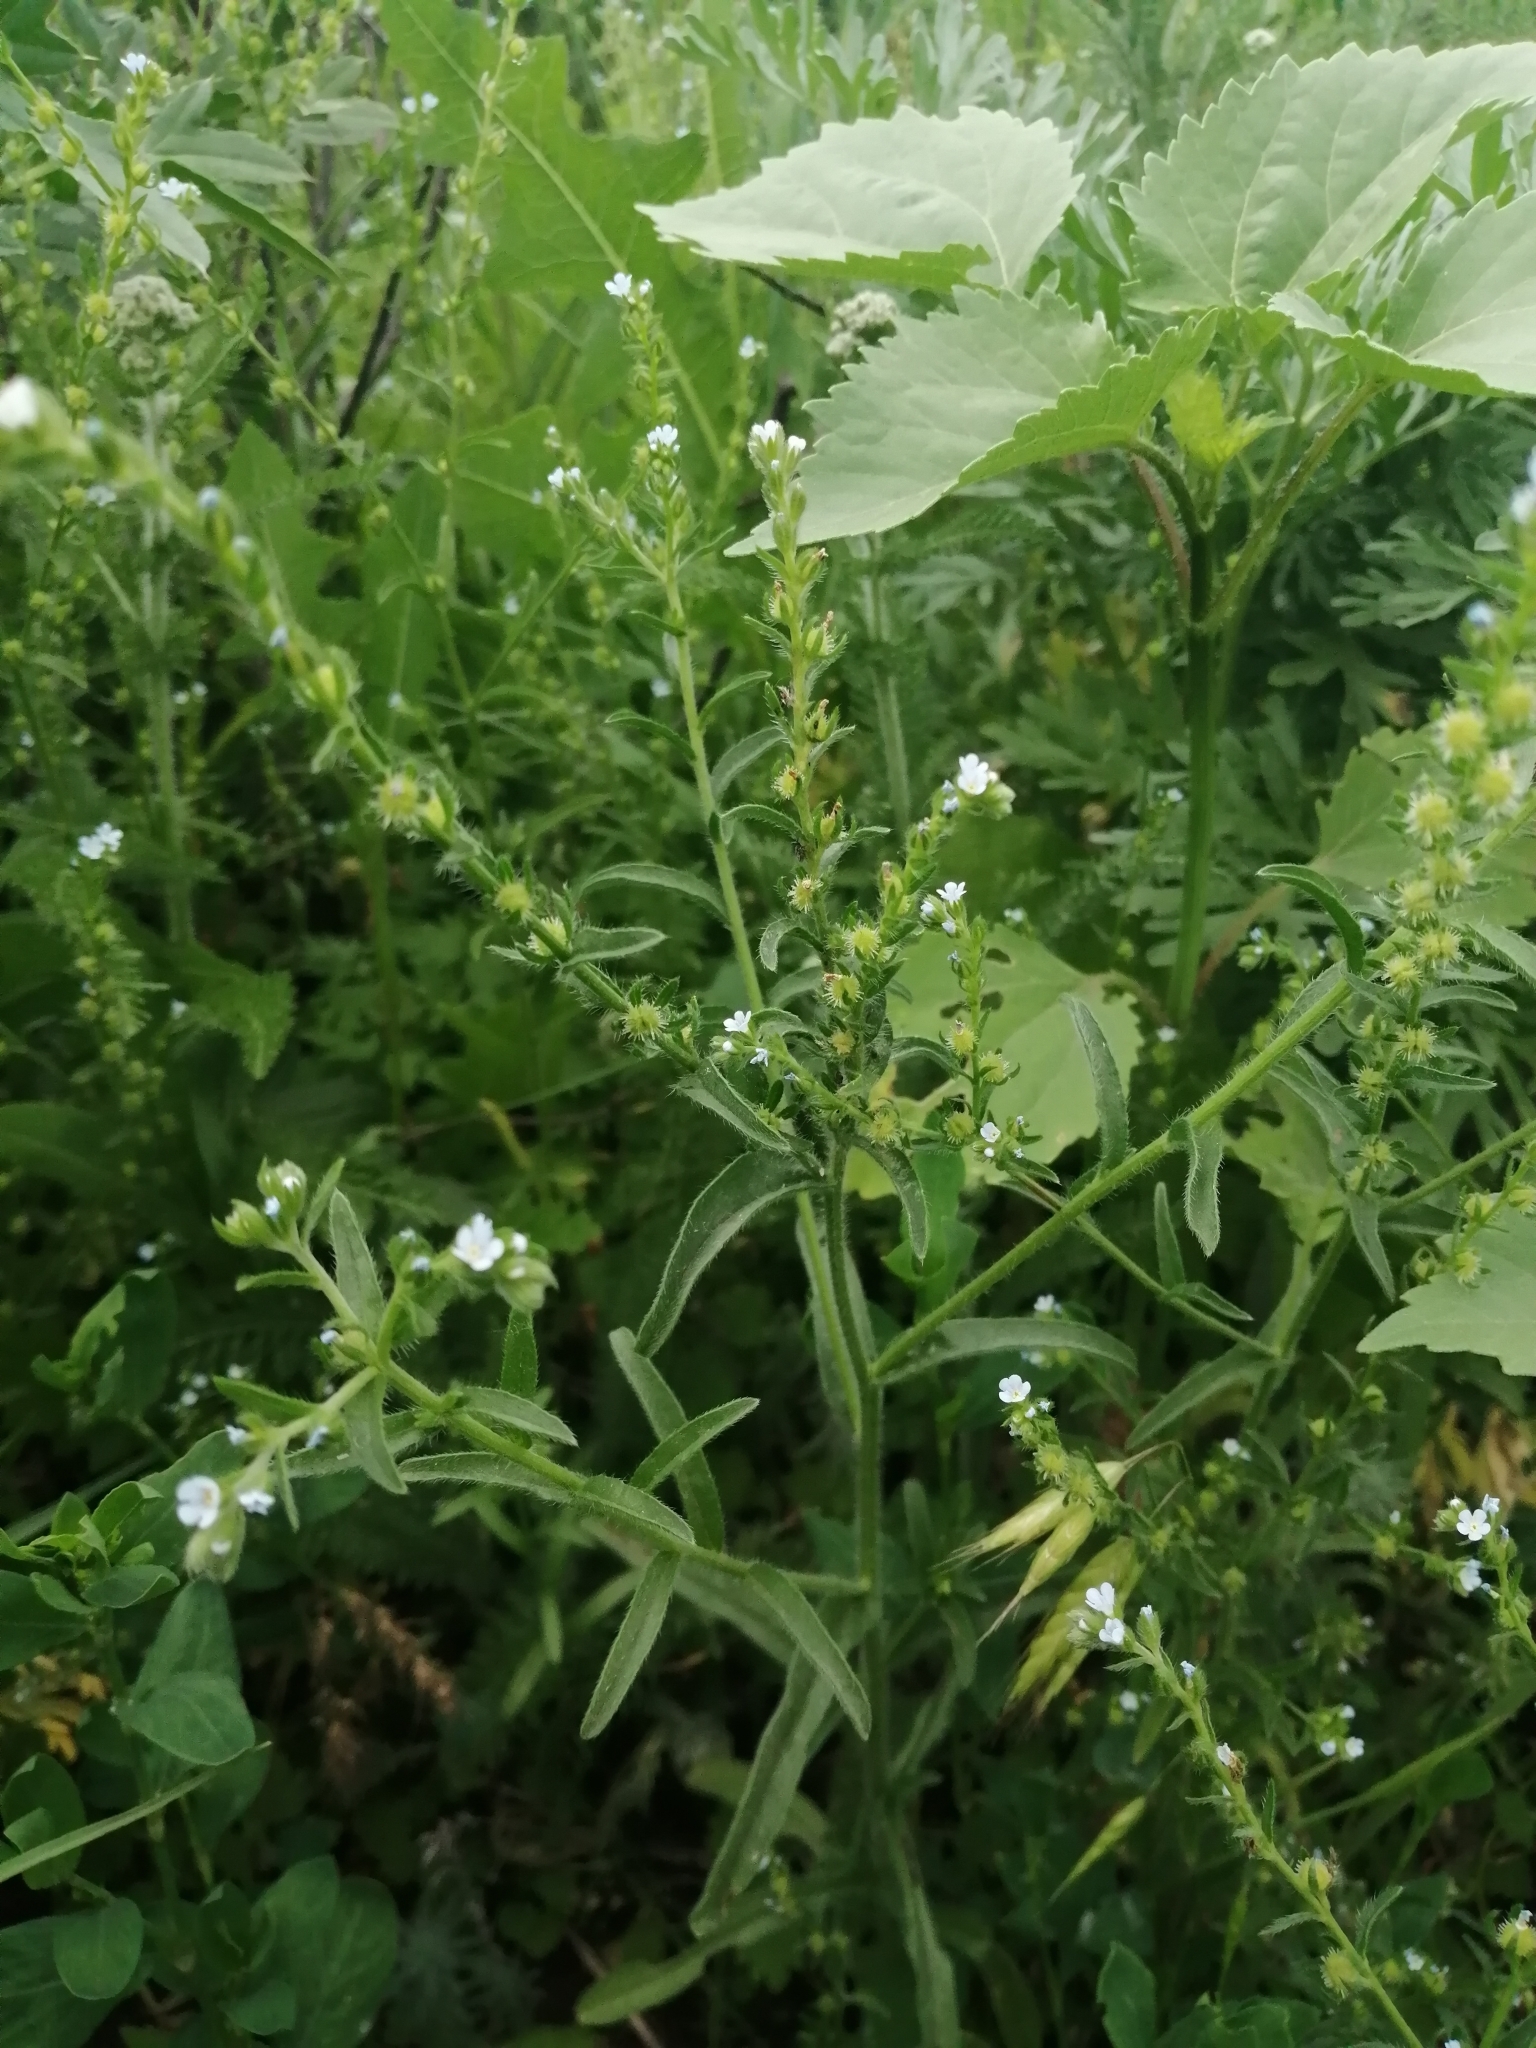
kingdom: Plantae
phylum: Tracheophyta
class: Magnoliopsida
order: Boraginales
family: Boraginaceae
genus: Lappula
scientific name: Lappula squarrosa
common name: European stickseed
